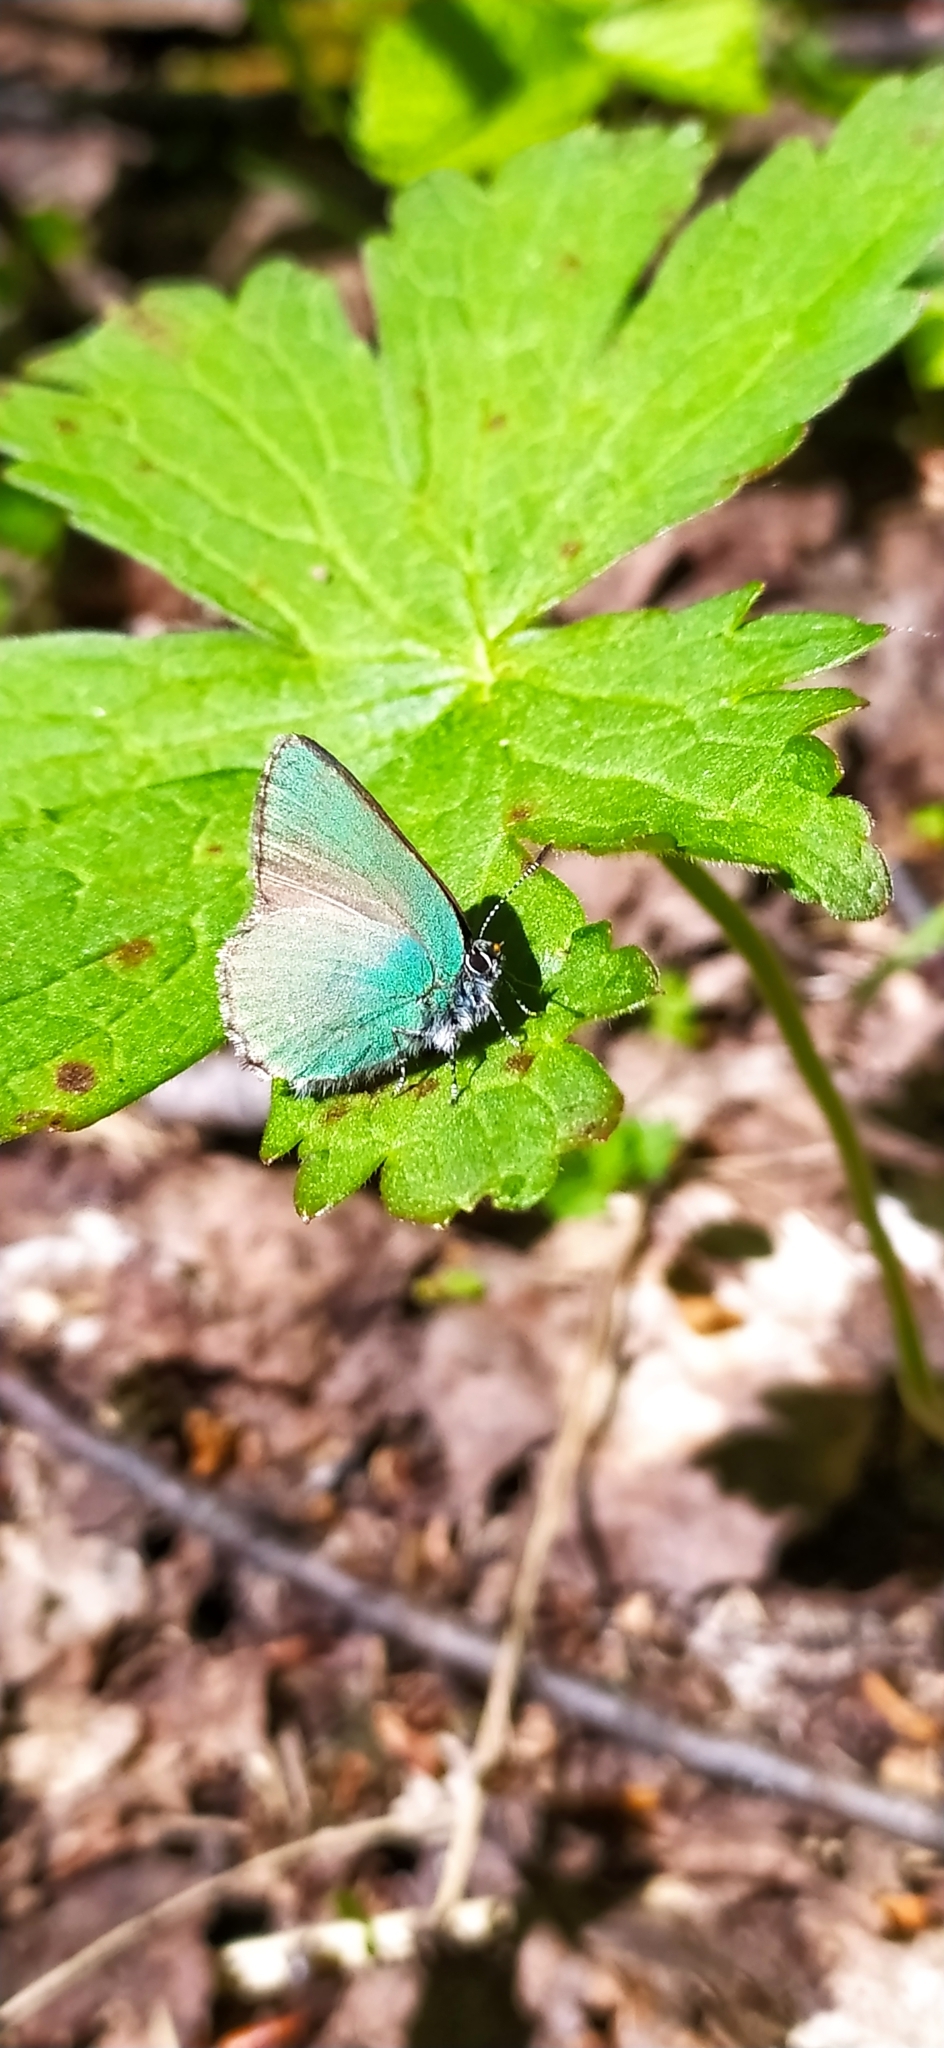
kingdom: Animalia
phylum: Arthropoda
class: Insecta
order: Lepidoptera
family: Lycaenidae
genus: Callophrys
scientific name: Callophrys rubi
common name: Green hairstreak
